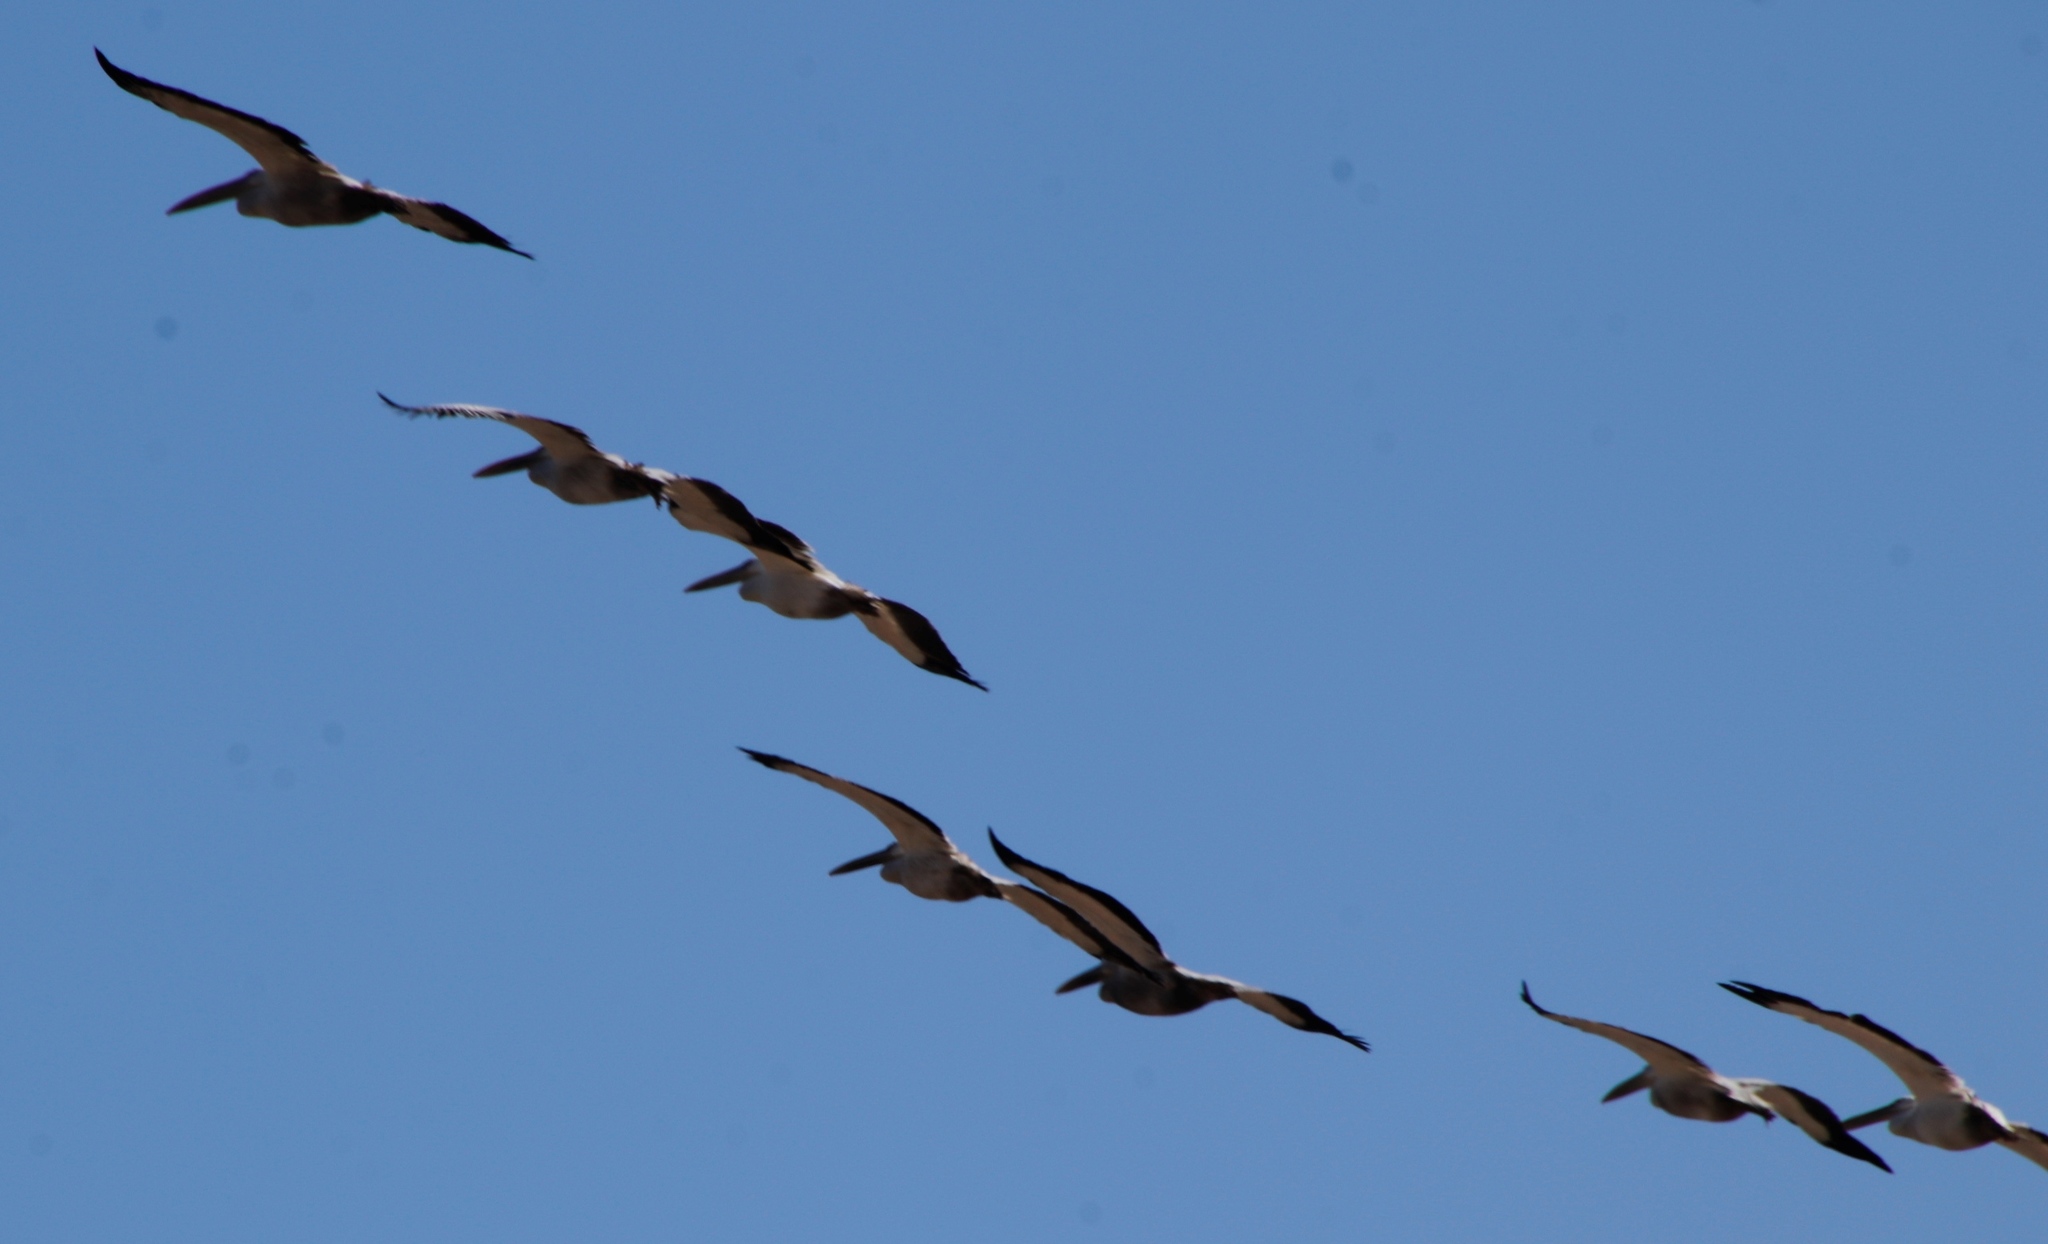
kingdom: Animalia
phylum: Chordata
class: Aves
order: Pelecaniformes
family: Pelecanidae
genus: Pelecanus
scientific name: Pelecanus onocrotalus
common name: Great white pelican
